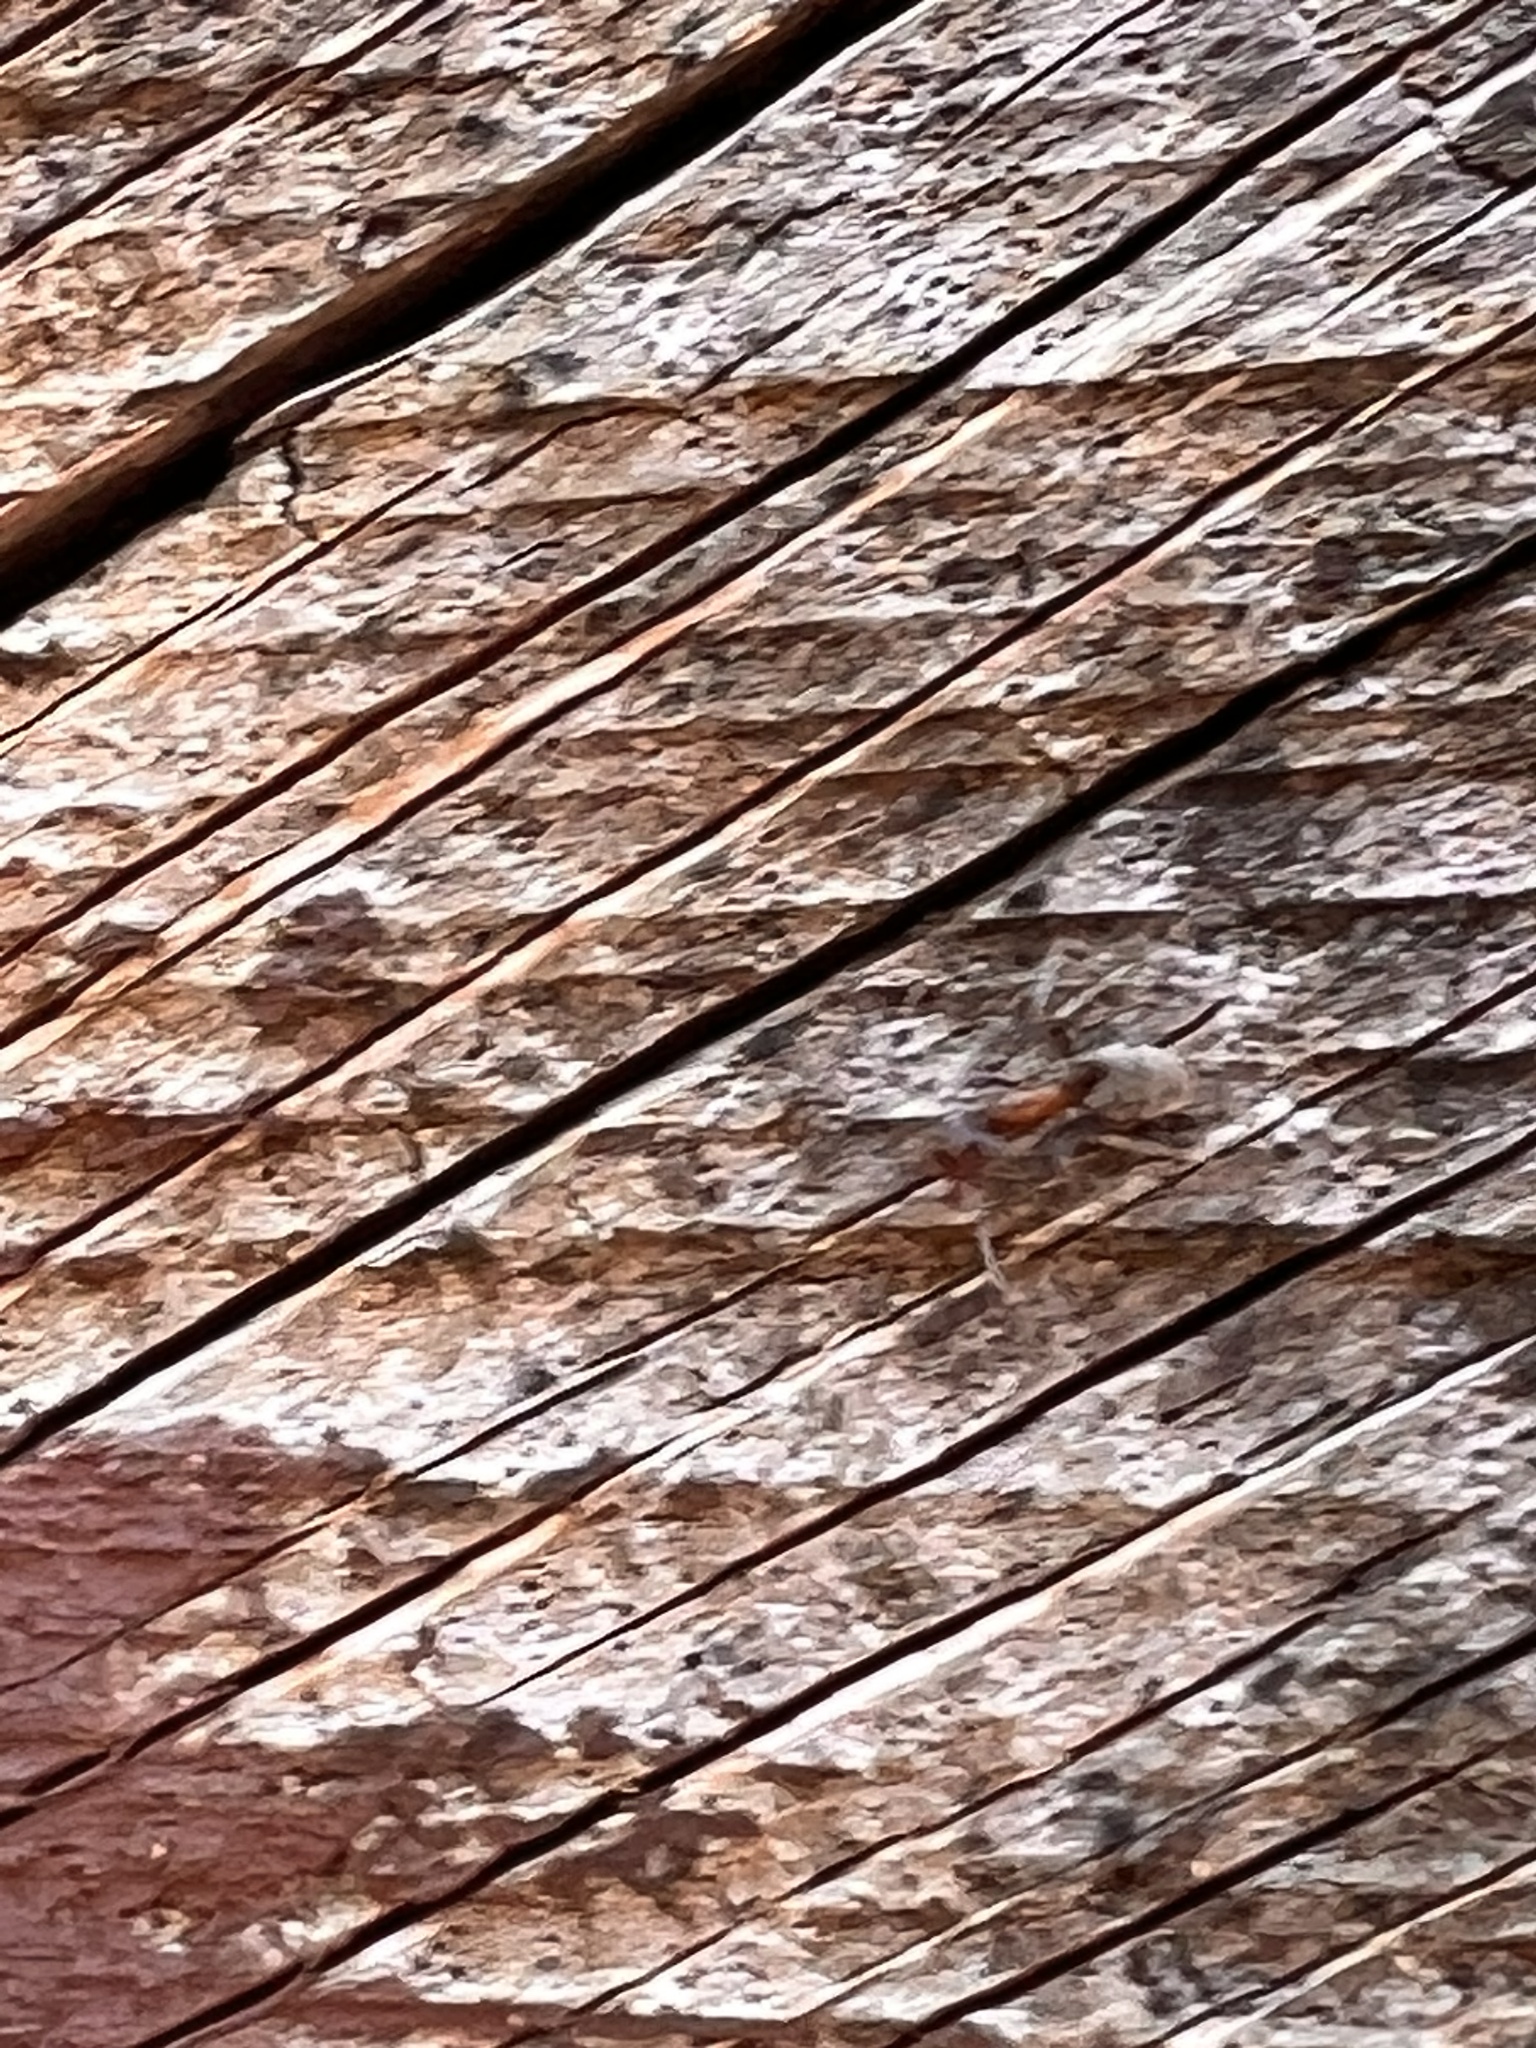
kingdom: Animalia
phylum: Arthropoda
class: Insecta
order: Hymenoptera
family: Formicidae
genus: Liometopum
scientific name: Liometopum occidentale
